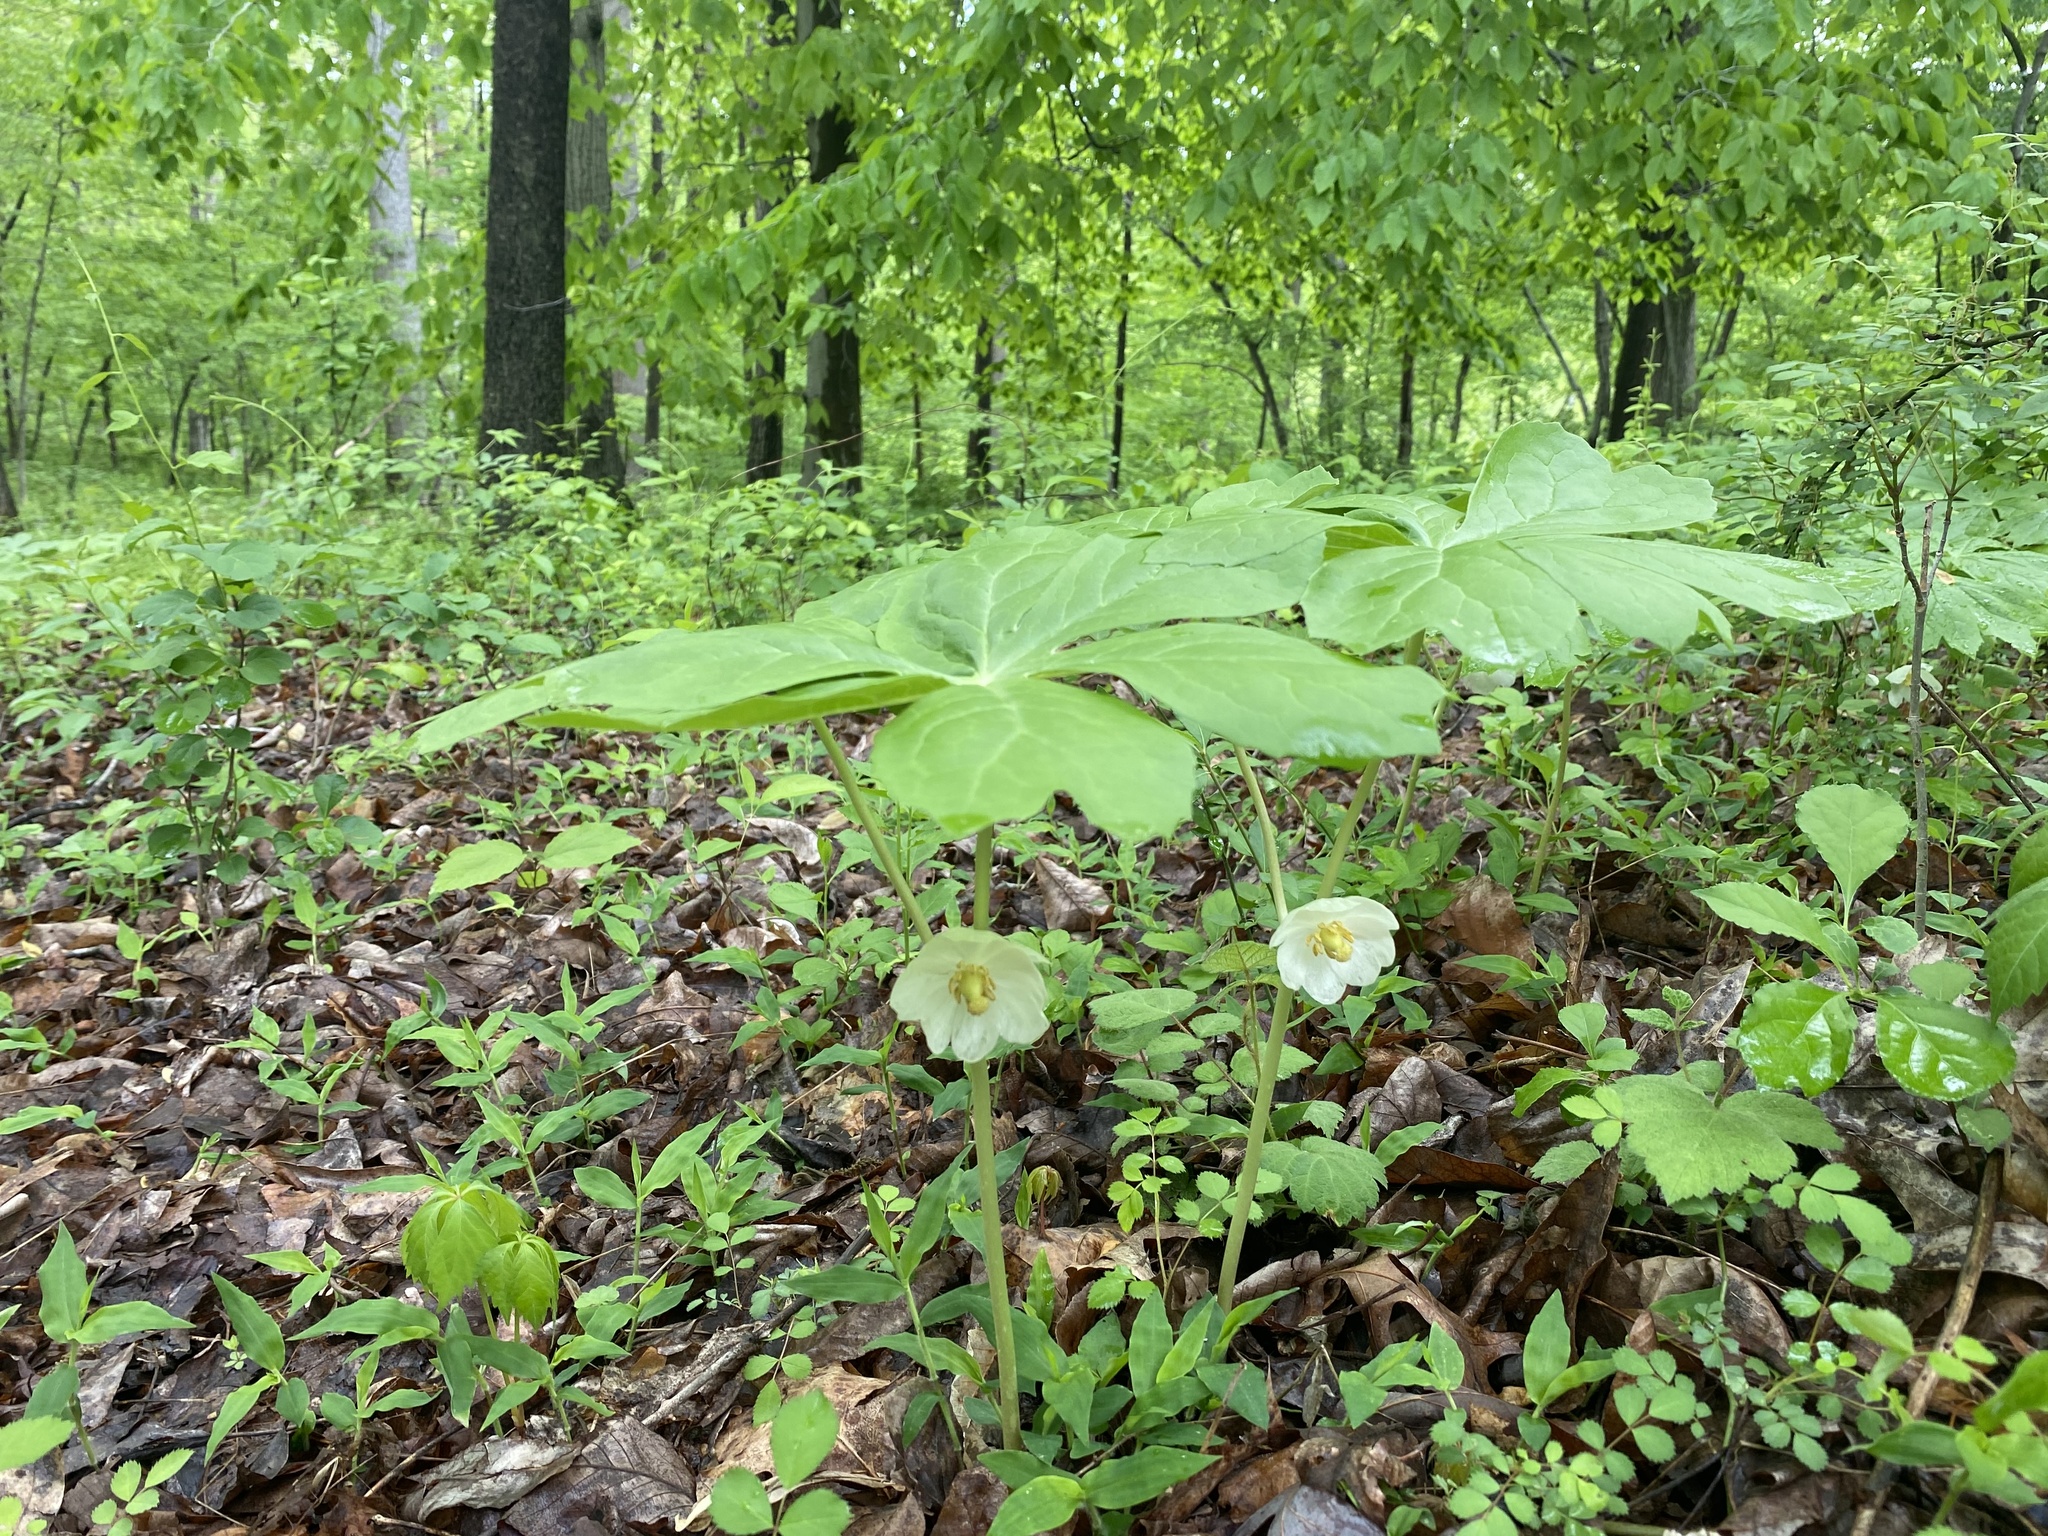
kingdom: Plantae
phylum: Tracheophyta
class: Magnoliopsida
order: Ranunculales
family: Berberidaceae
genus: Podophyllum
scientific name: Podophyllum peltatum
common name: Wild mandrake
